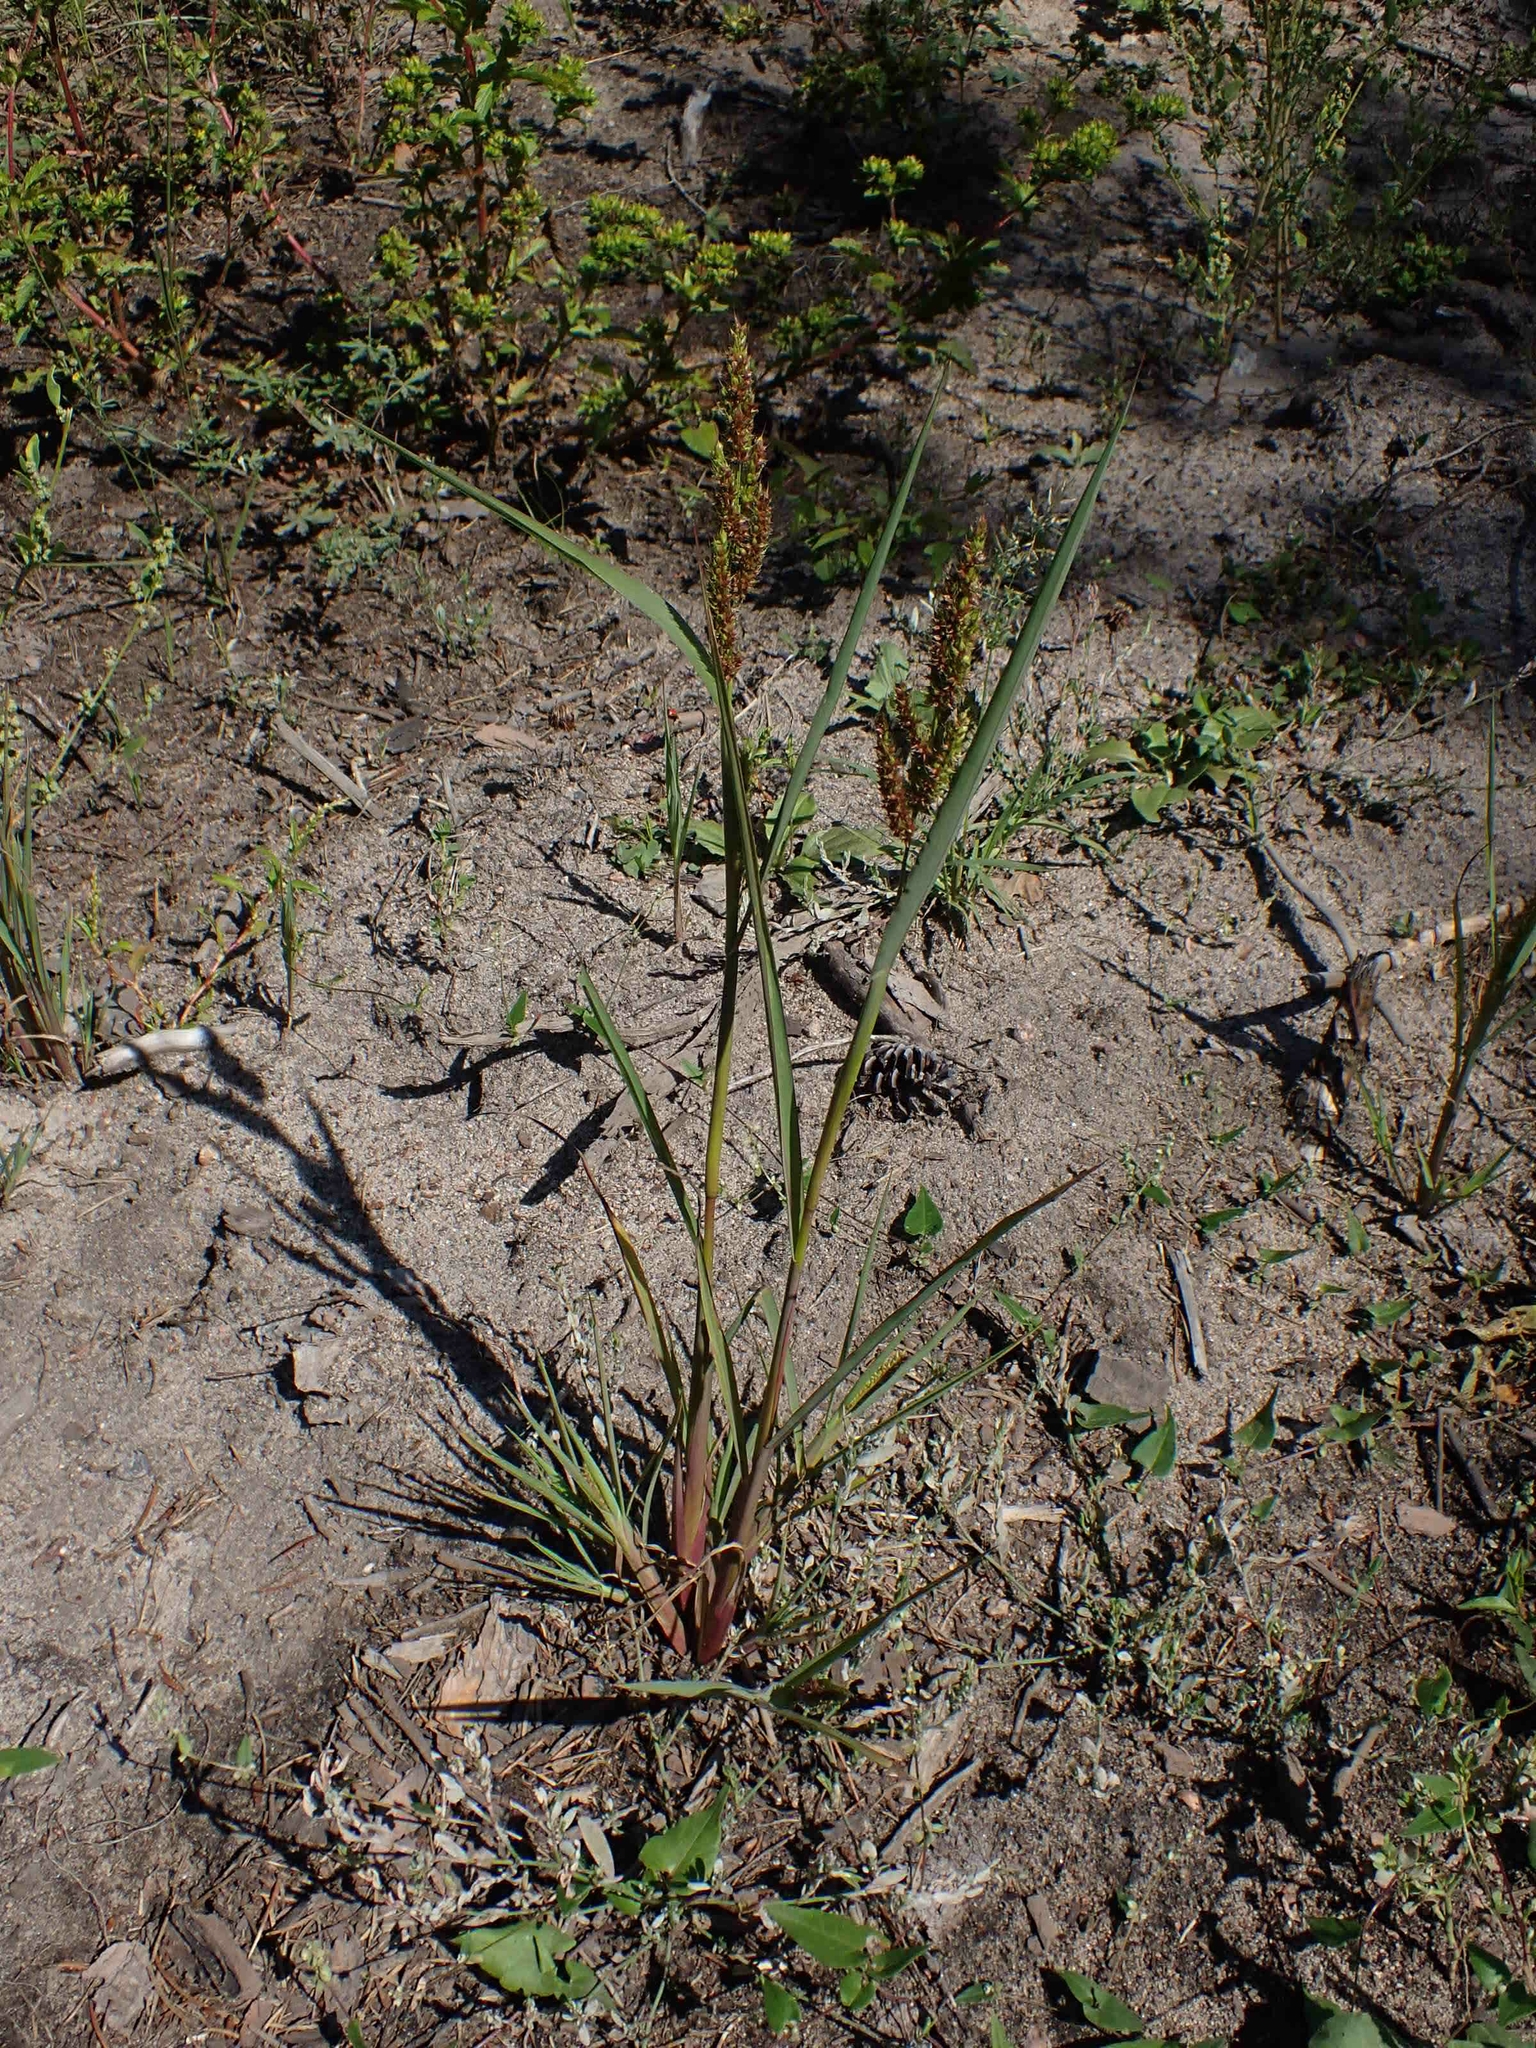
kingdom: Plantae
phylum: Tracheophyta
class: Liliopsida
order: Poales
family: Poaceae
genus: Echinochloa
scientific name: Echinochloa crus-galli
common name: Cockspur
